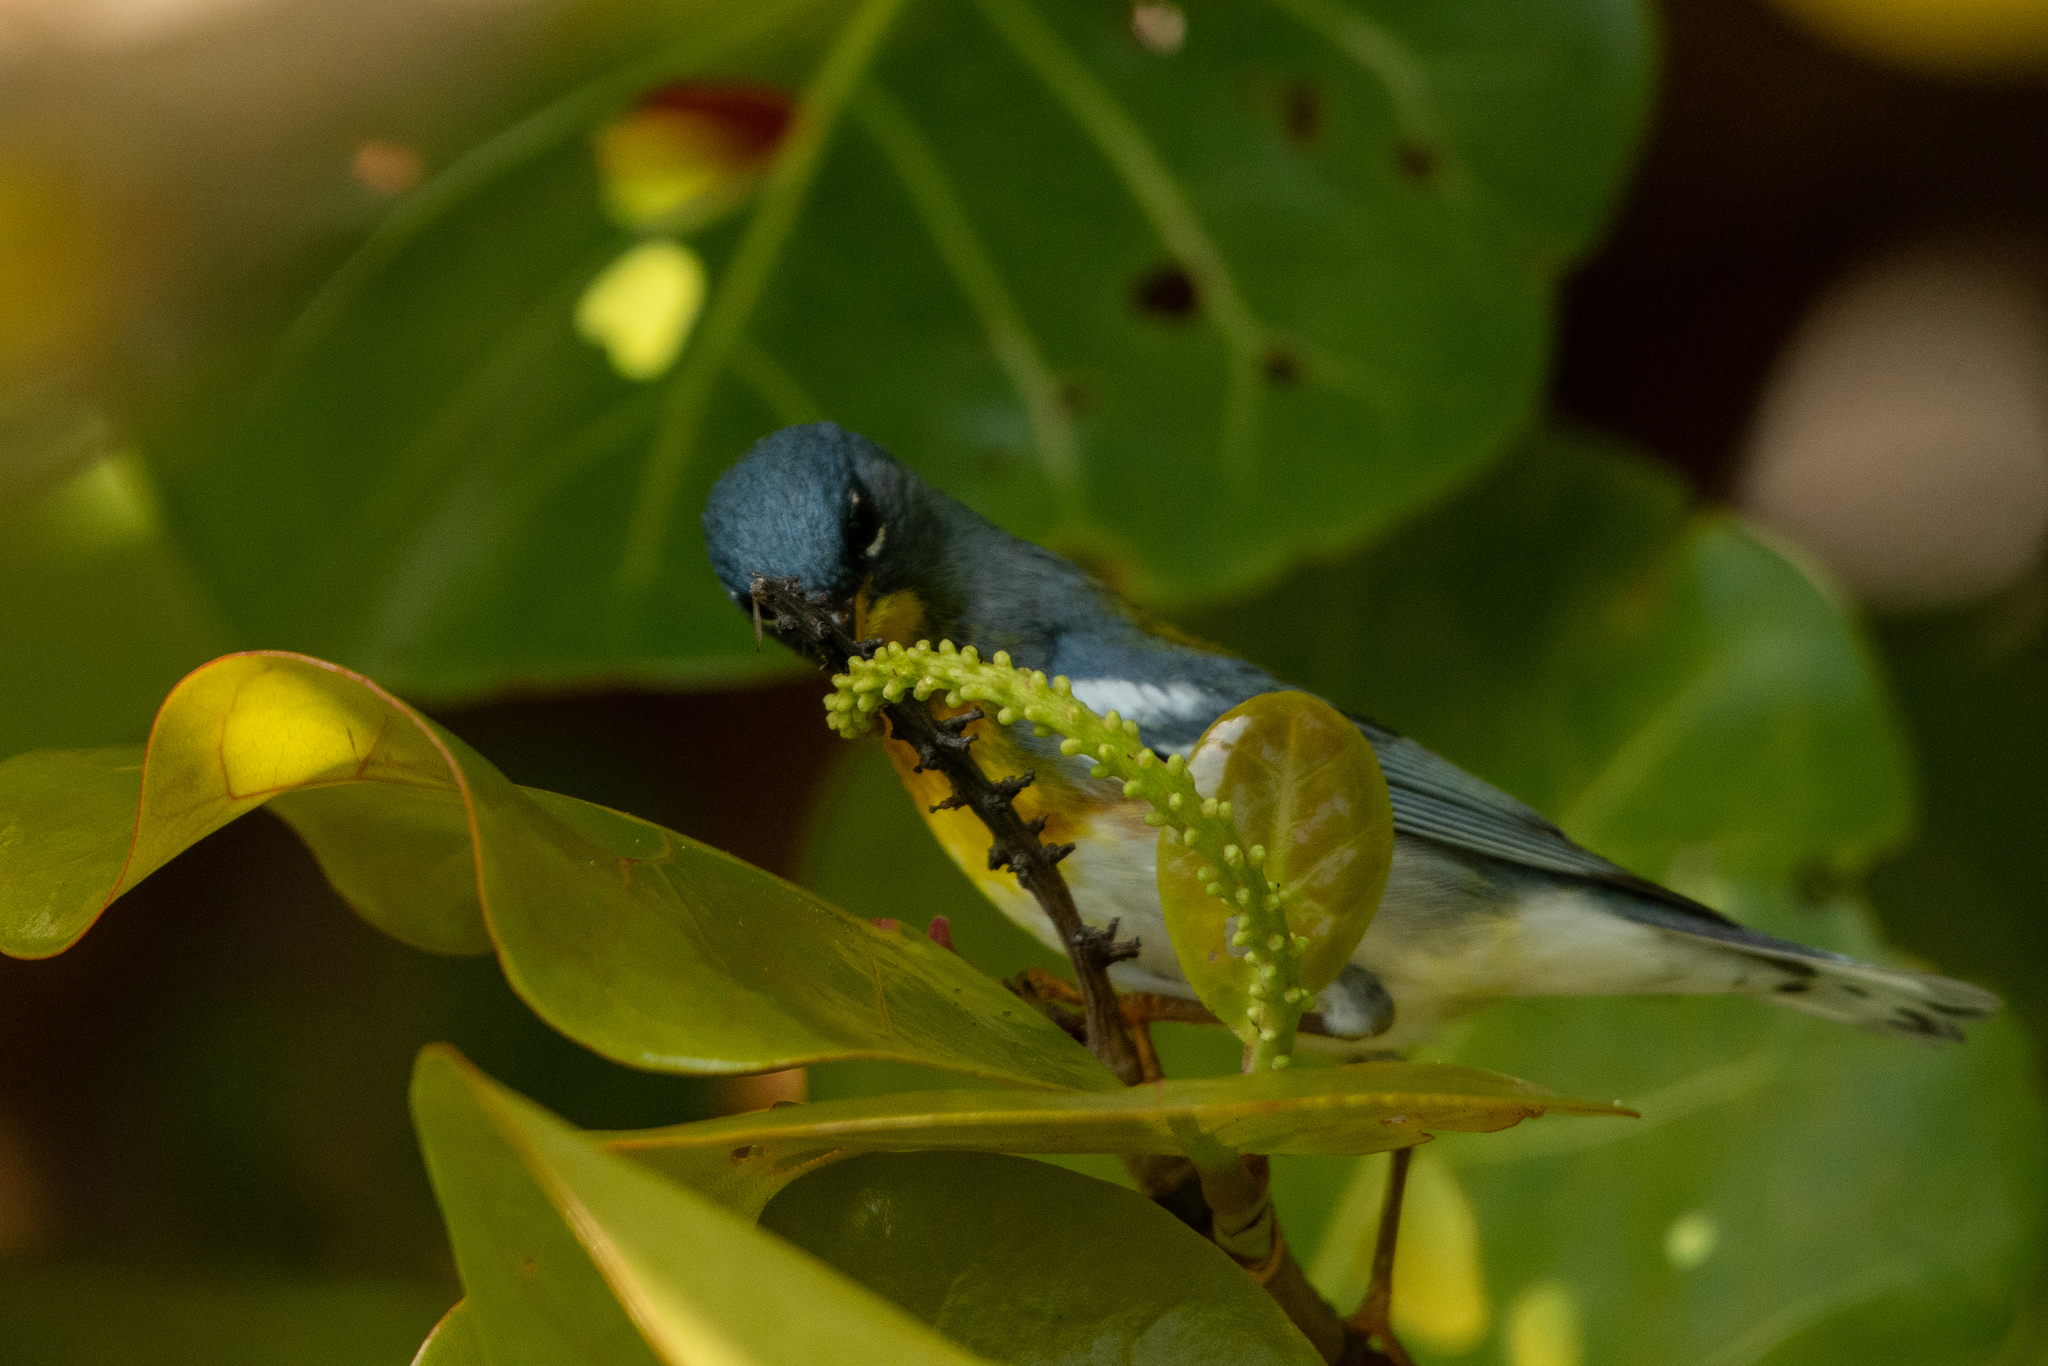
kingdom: Animalia
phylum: Chordata
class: Aves
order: Passeriformes
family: Parulidae
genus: Setophaga
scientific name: Setophaga americana
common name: Northern parula
